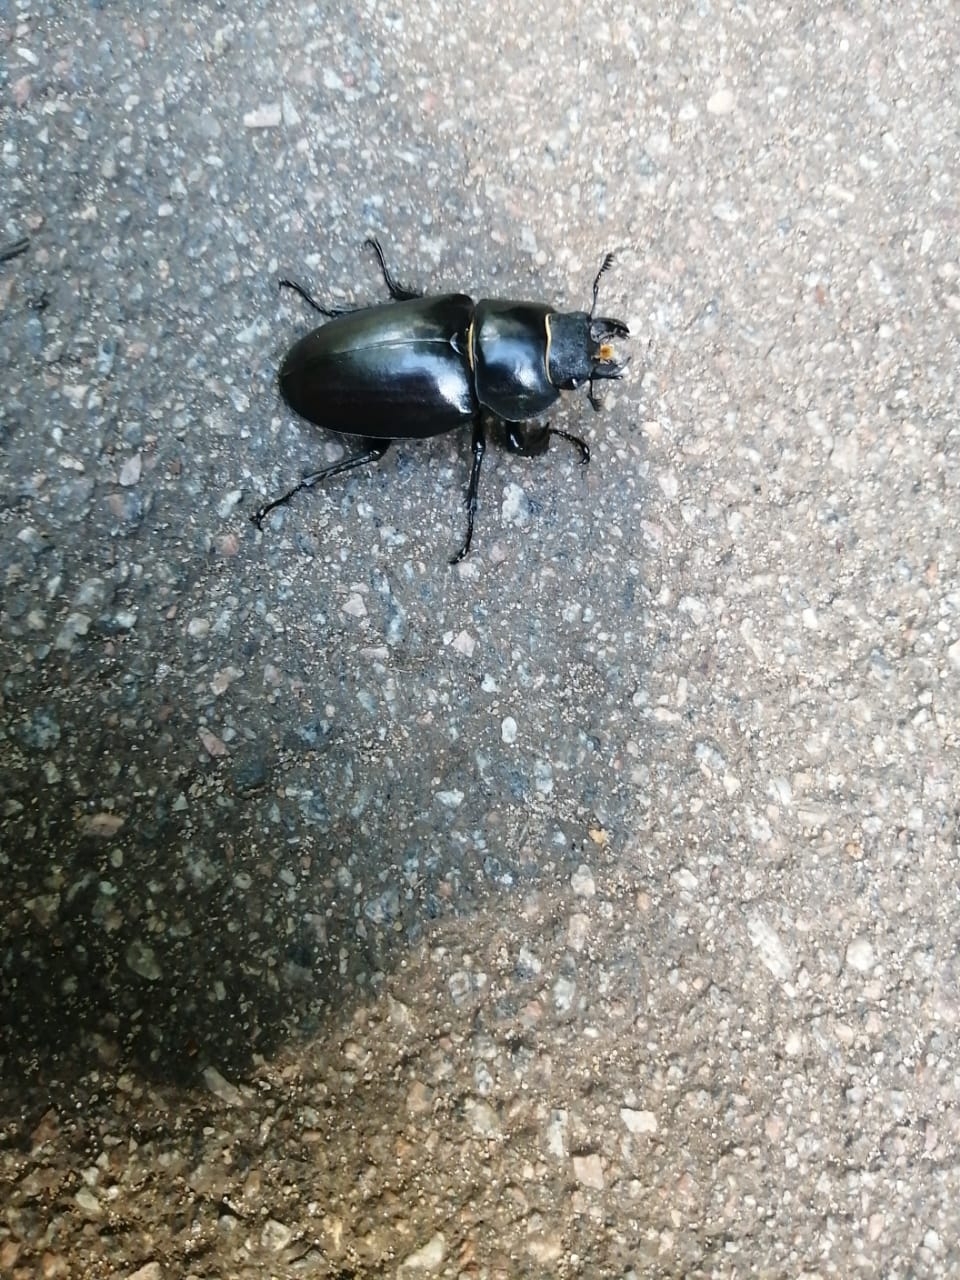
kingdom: Animalia
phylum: Arthropoda
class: Insecta
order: Coleoptera
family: Lucanidae
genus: Lucanus
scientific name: Lucanus cervus
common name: Stag beetle
